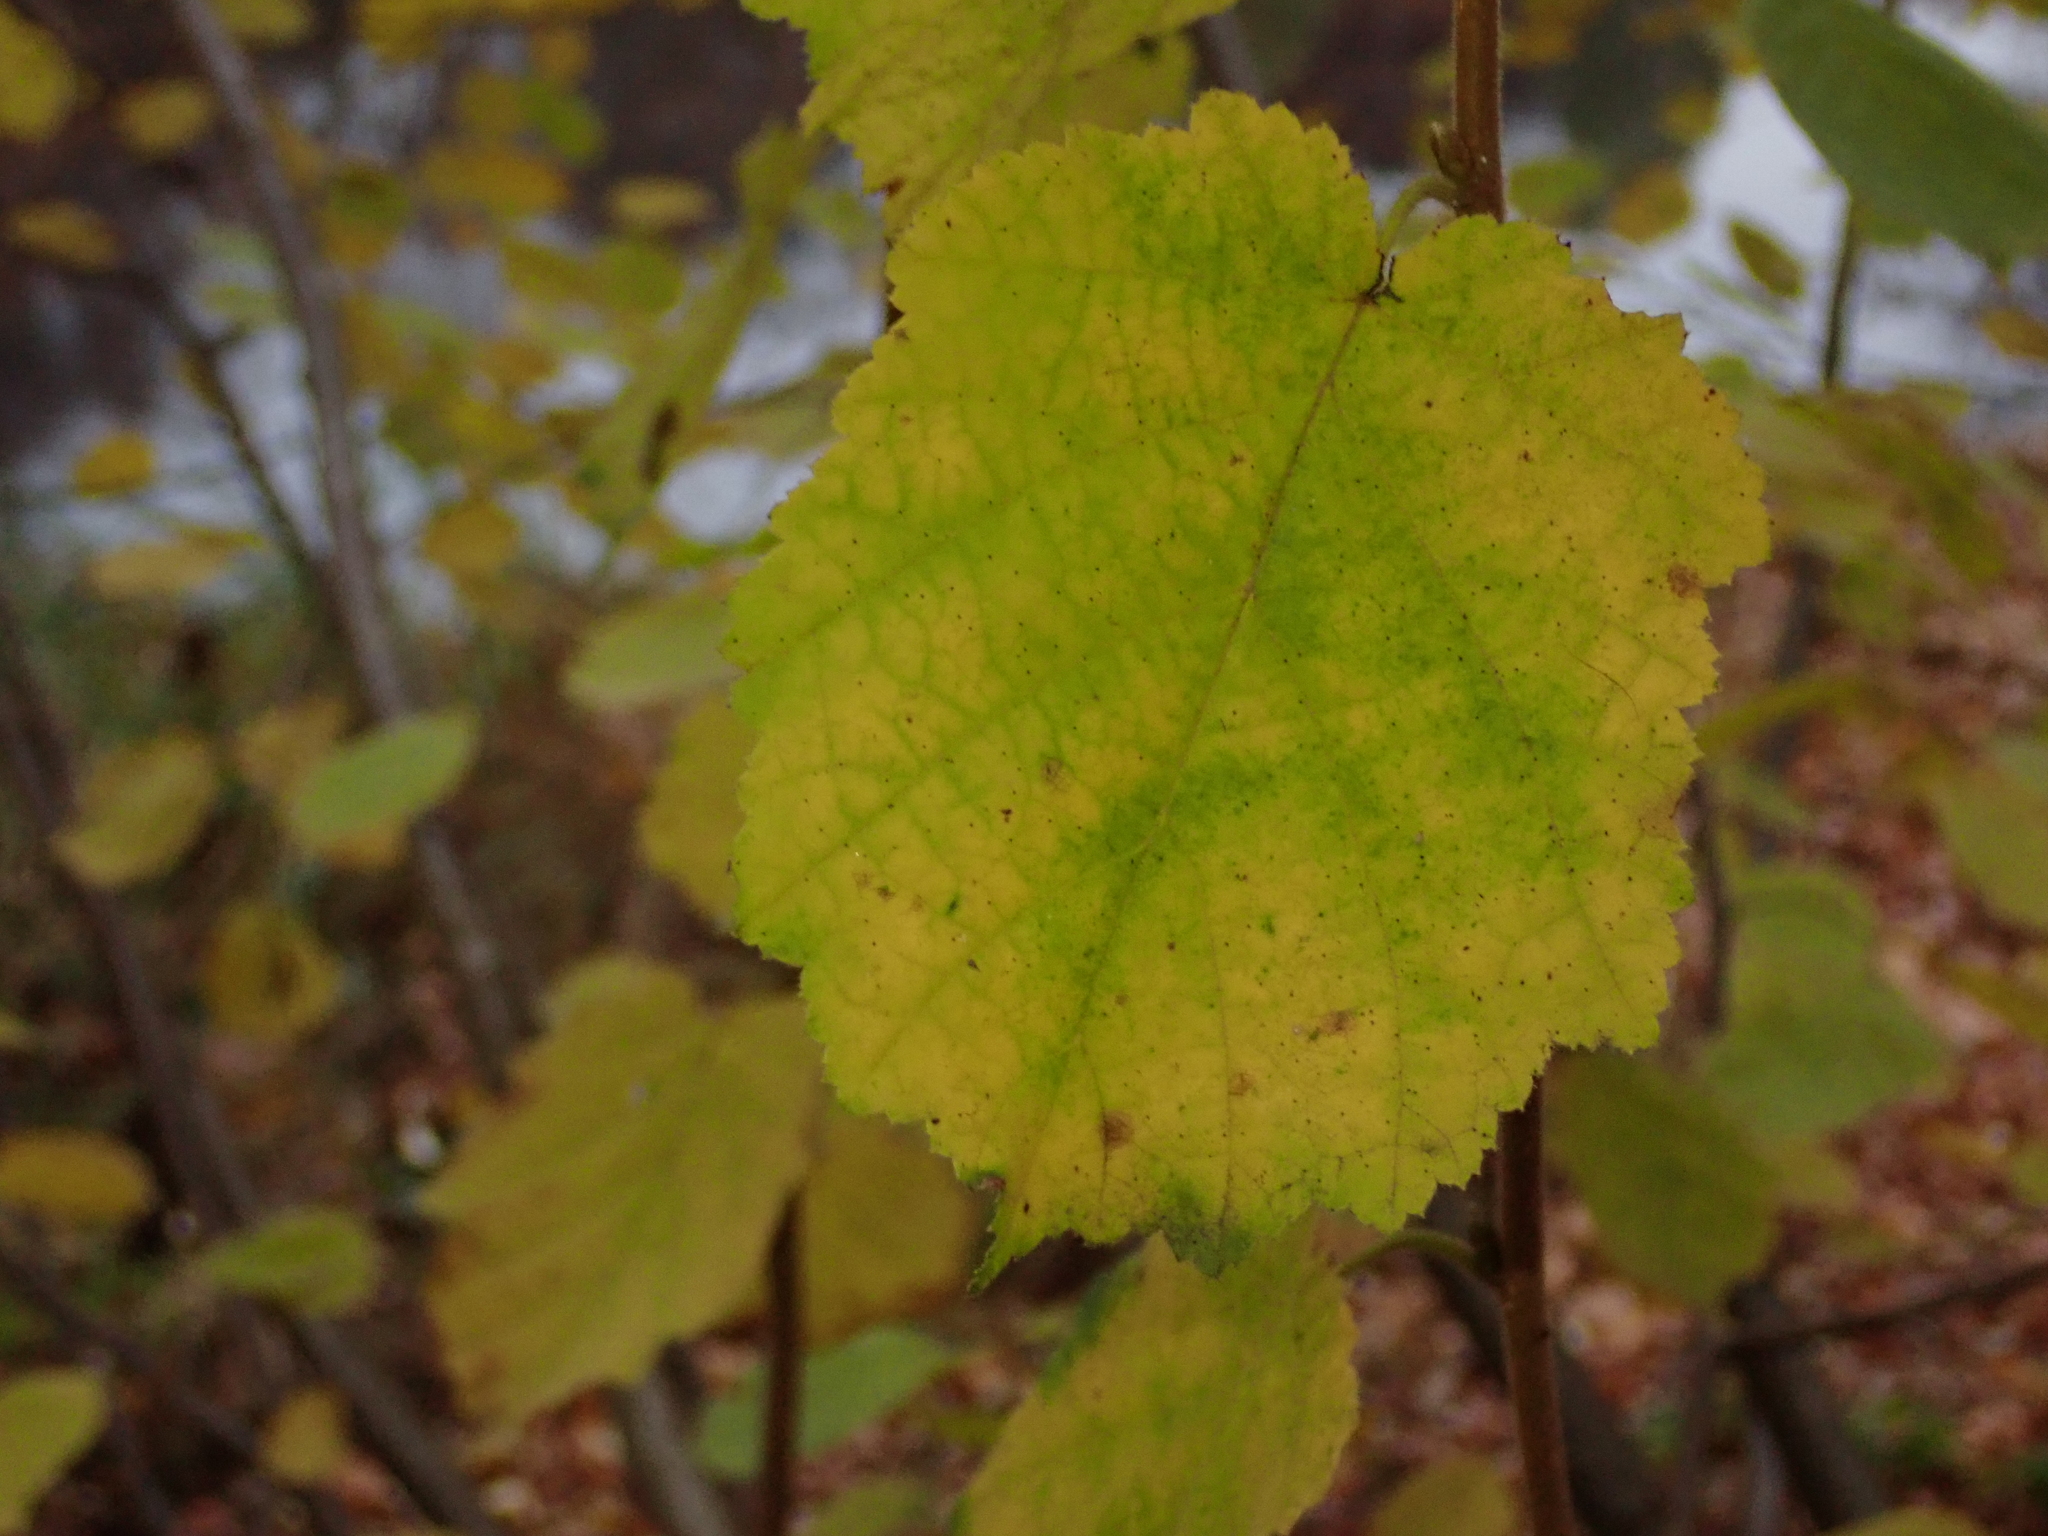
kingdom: Plantae
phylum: Tracheophyta
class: Magnoliopsida
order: Fagales
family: Betulaceae
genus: Corylus
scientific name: Corylus avellana
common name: European hazel
